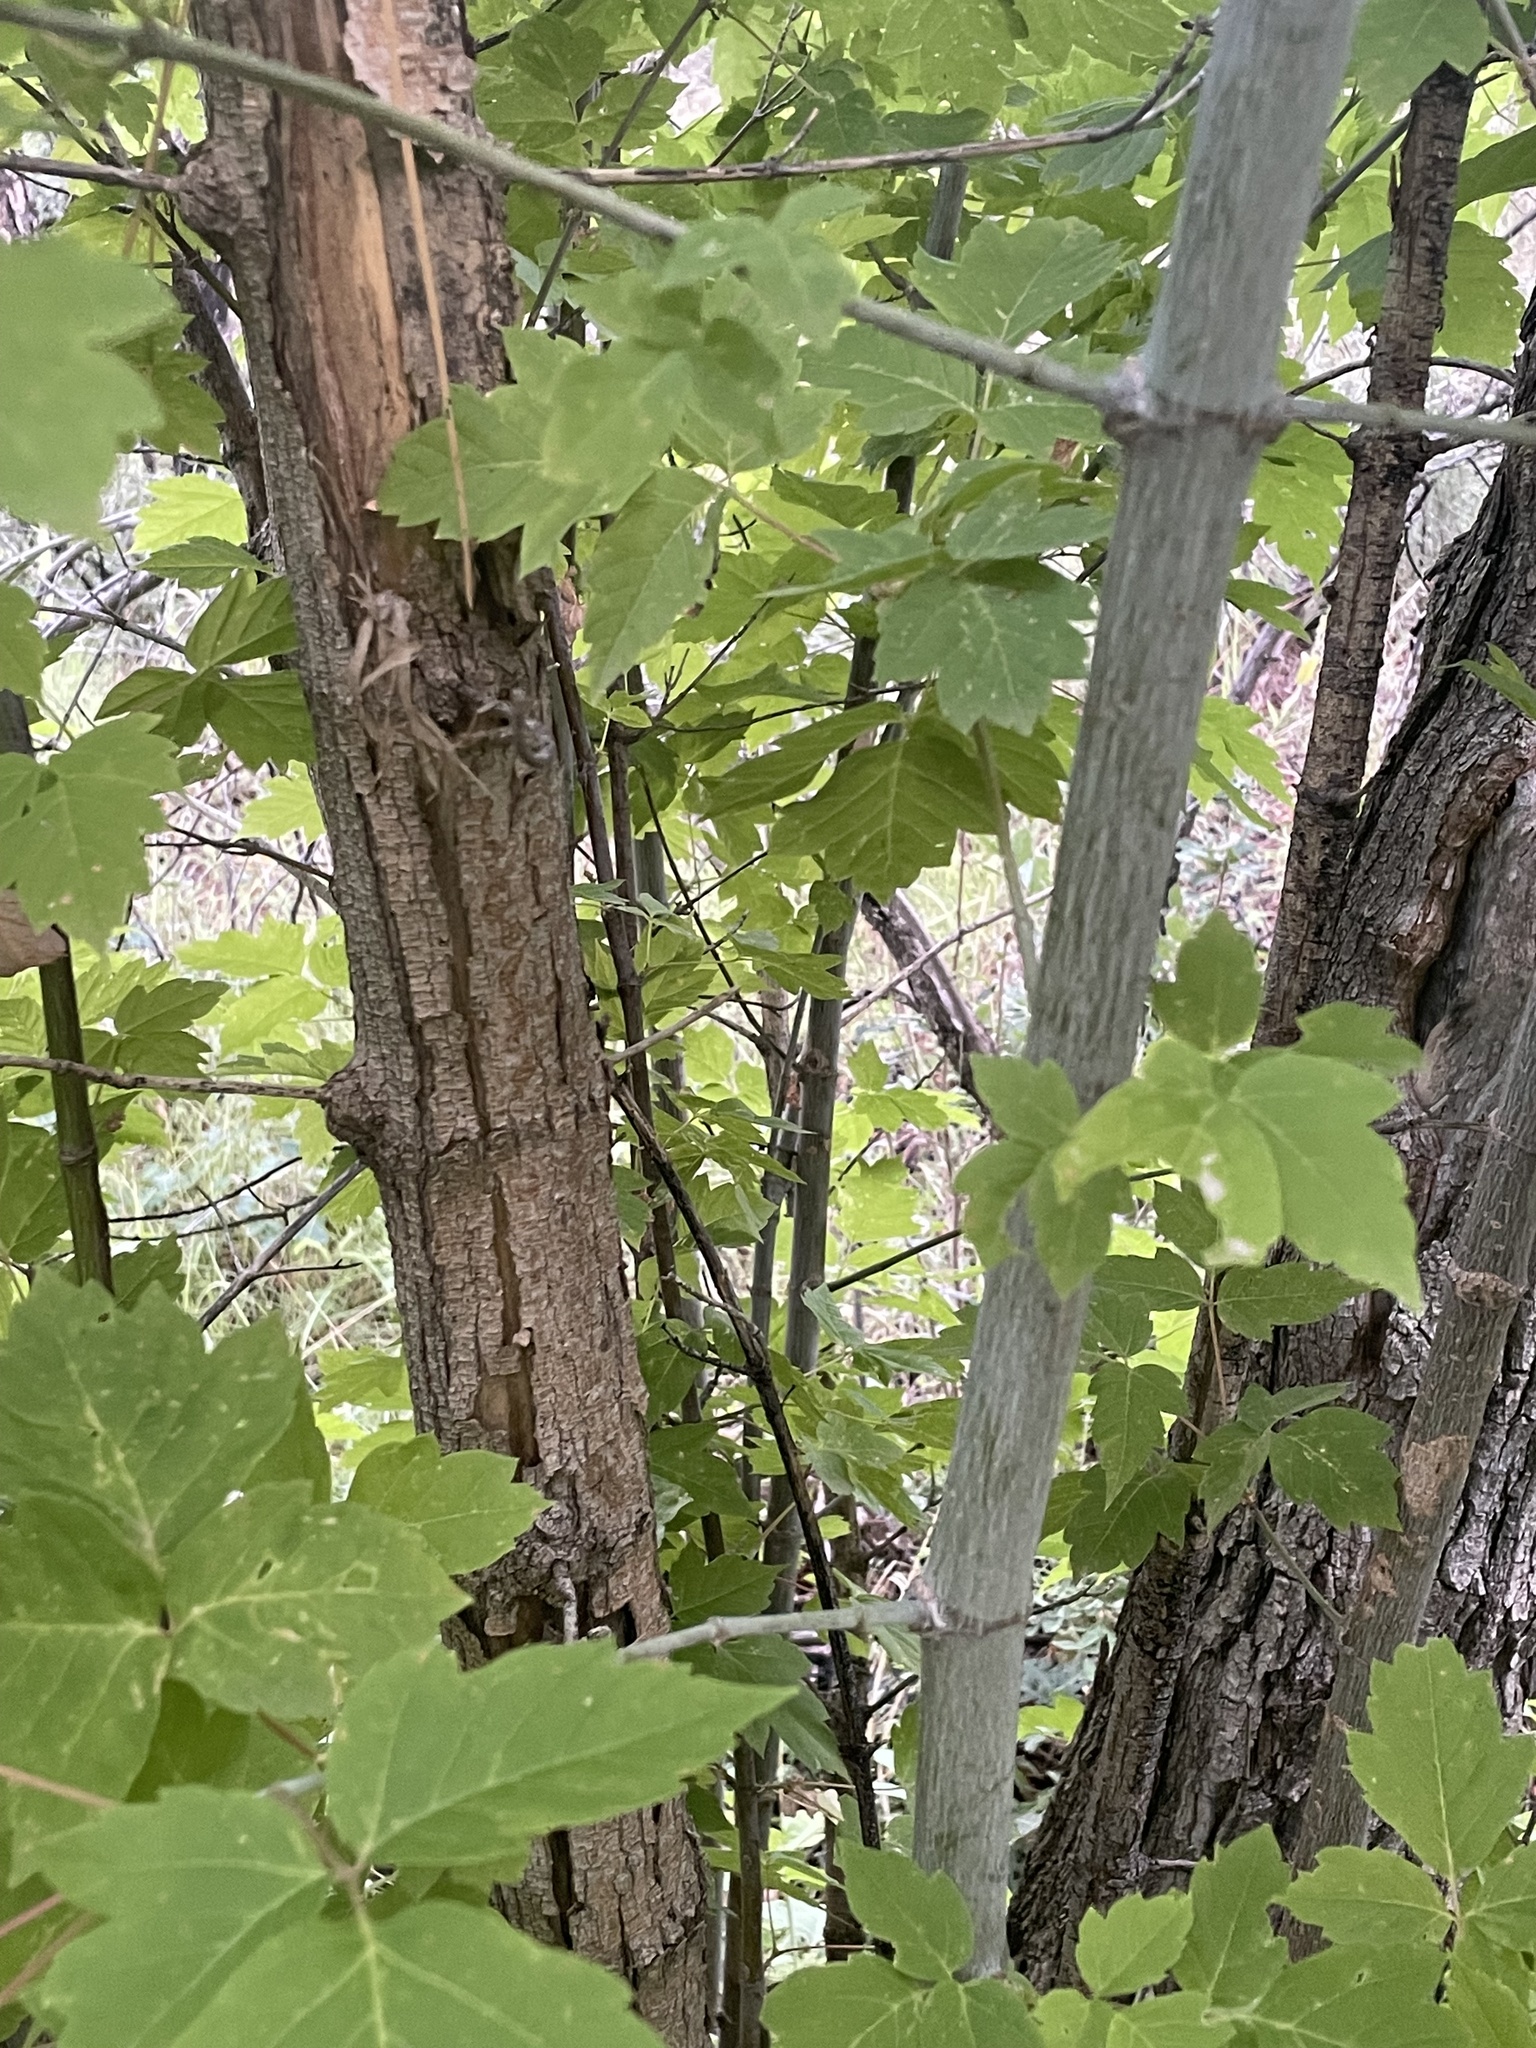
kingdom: Plantae
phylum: Tracheophyta
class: Magnoliopsida
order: Sapindales
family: Sapindaceae
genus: Acer
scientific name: Acer negundo
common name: Ashleaf maple
